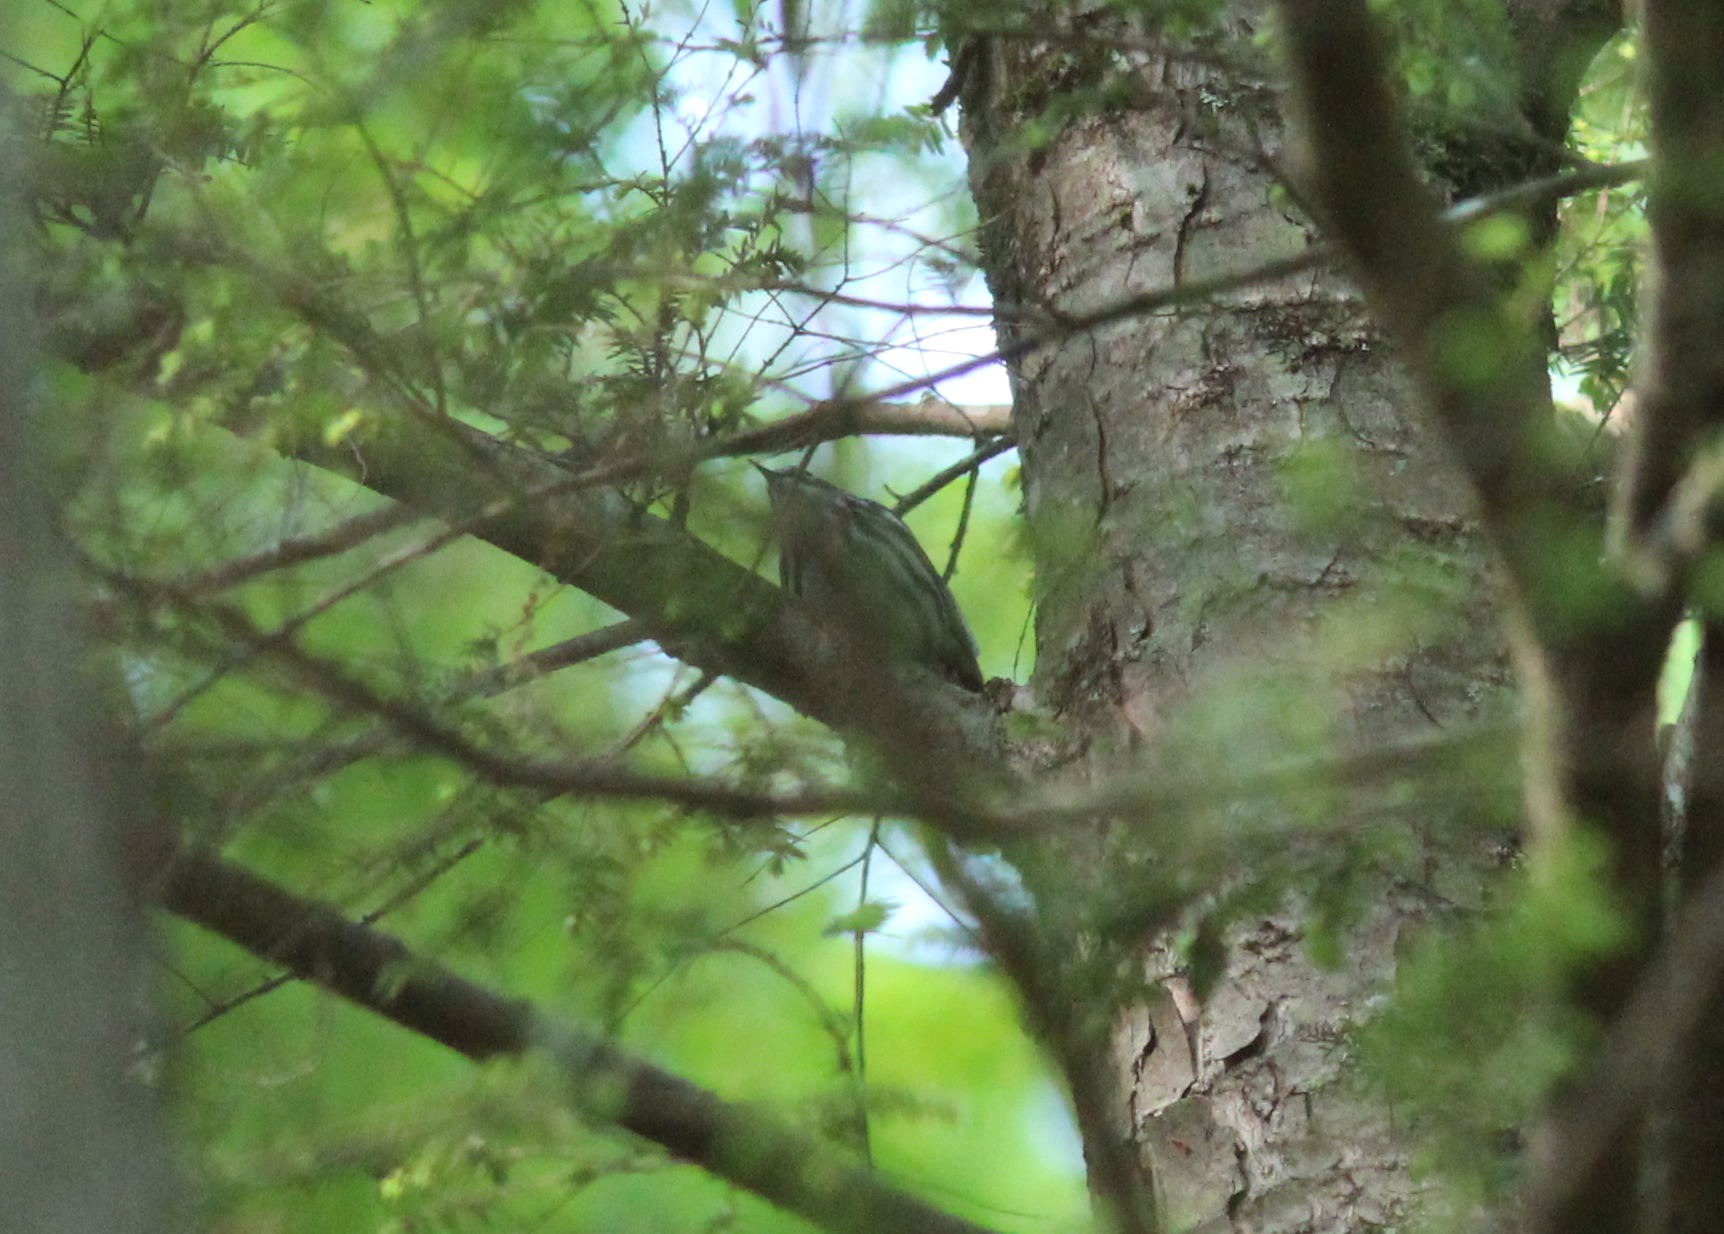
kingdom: Animalia
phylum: Chordata
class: Aves
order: Passeriformes
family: Parulidae
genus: Mniotilta
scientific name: Mniotilta varia
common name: Black-and-white warbler
